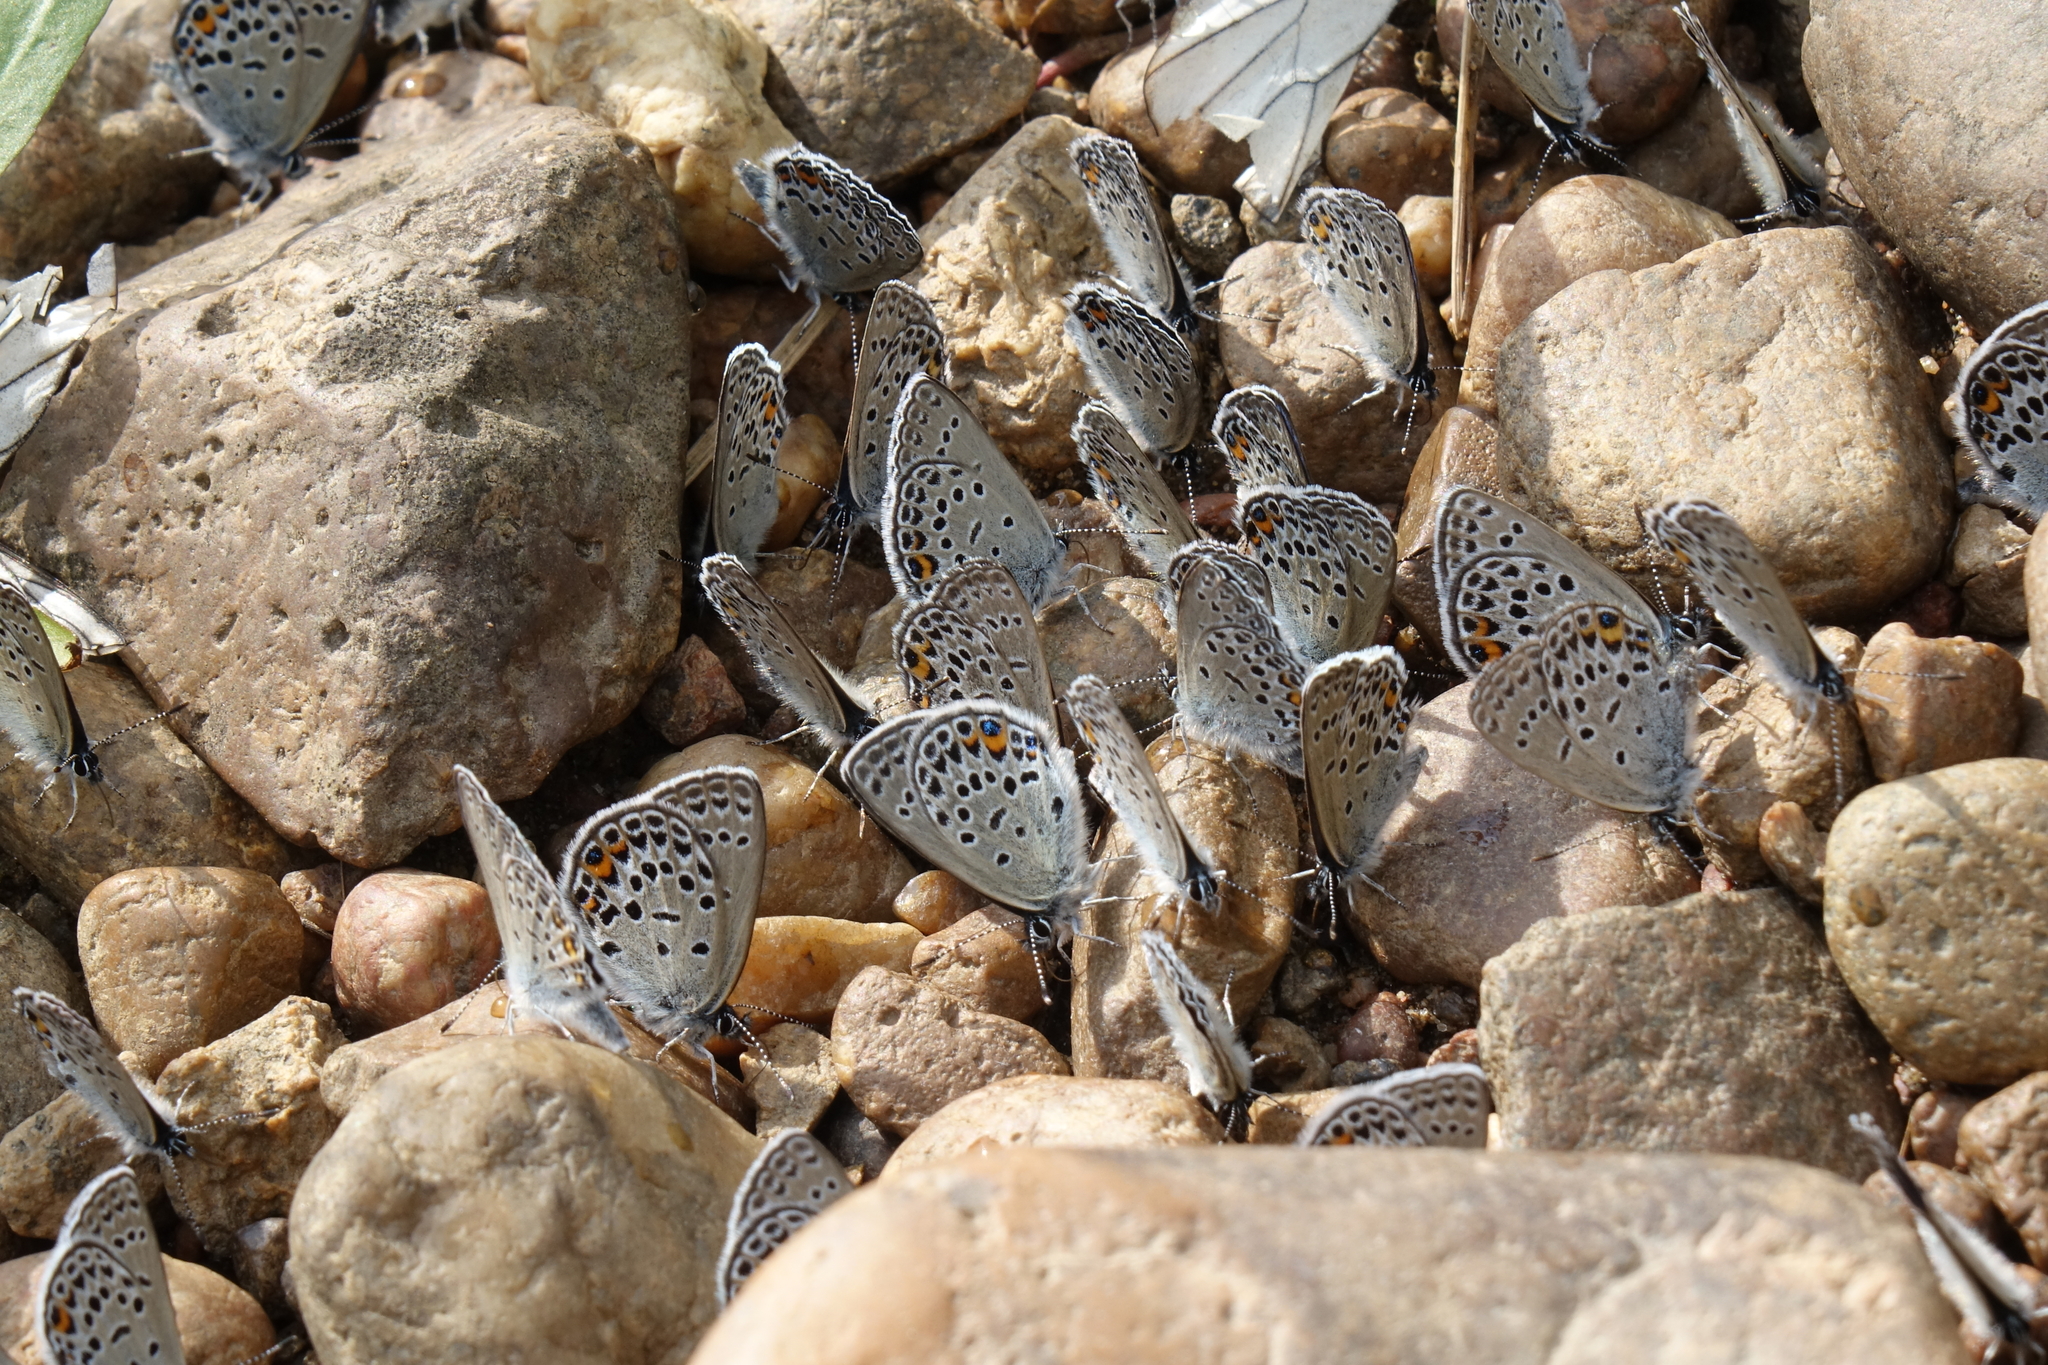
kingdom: Animalia
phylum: Arthropoda
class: Insecta
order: Lepidoptera
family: Lycaenidae
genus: Vacciniina
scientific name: Vacciniina optilete
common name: Cranberry blue
